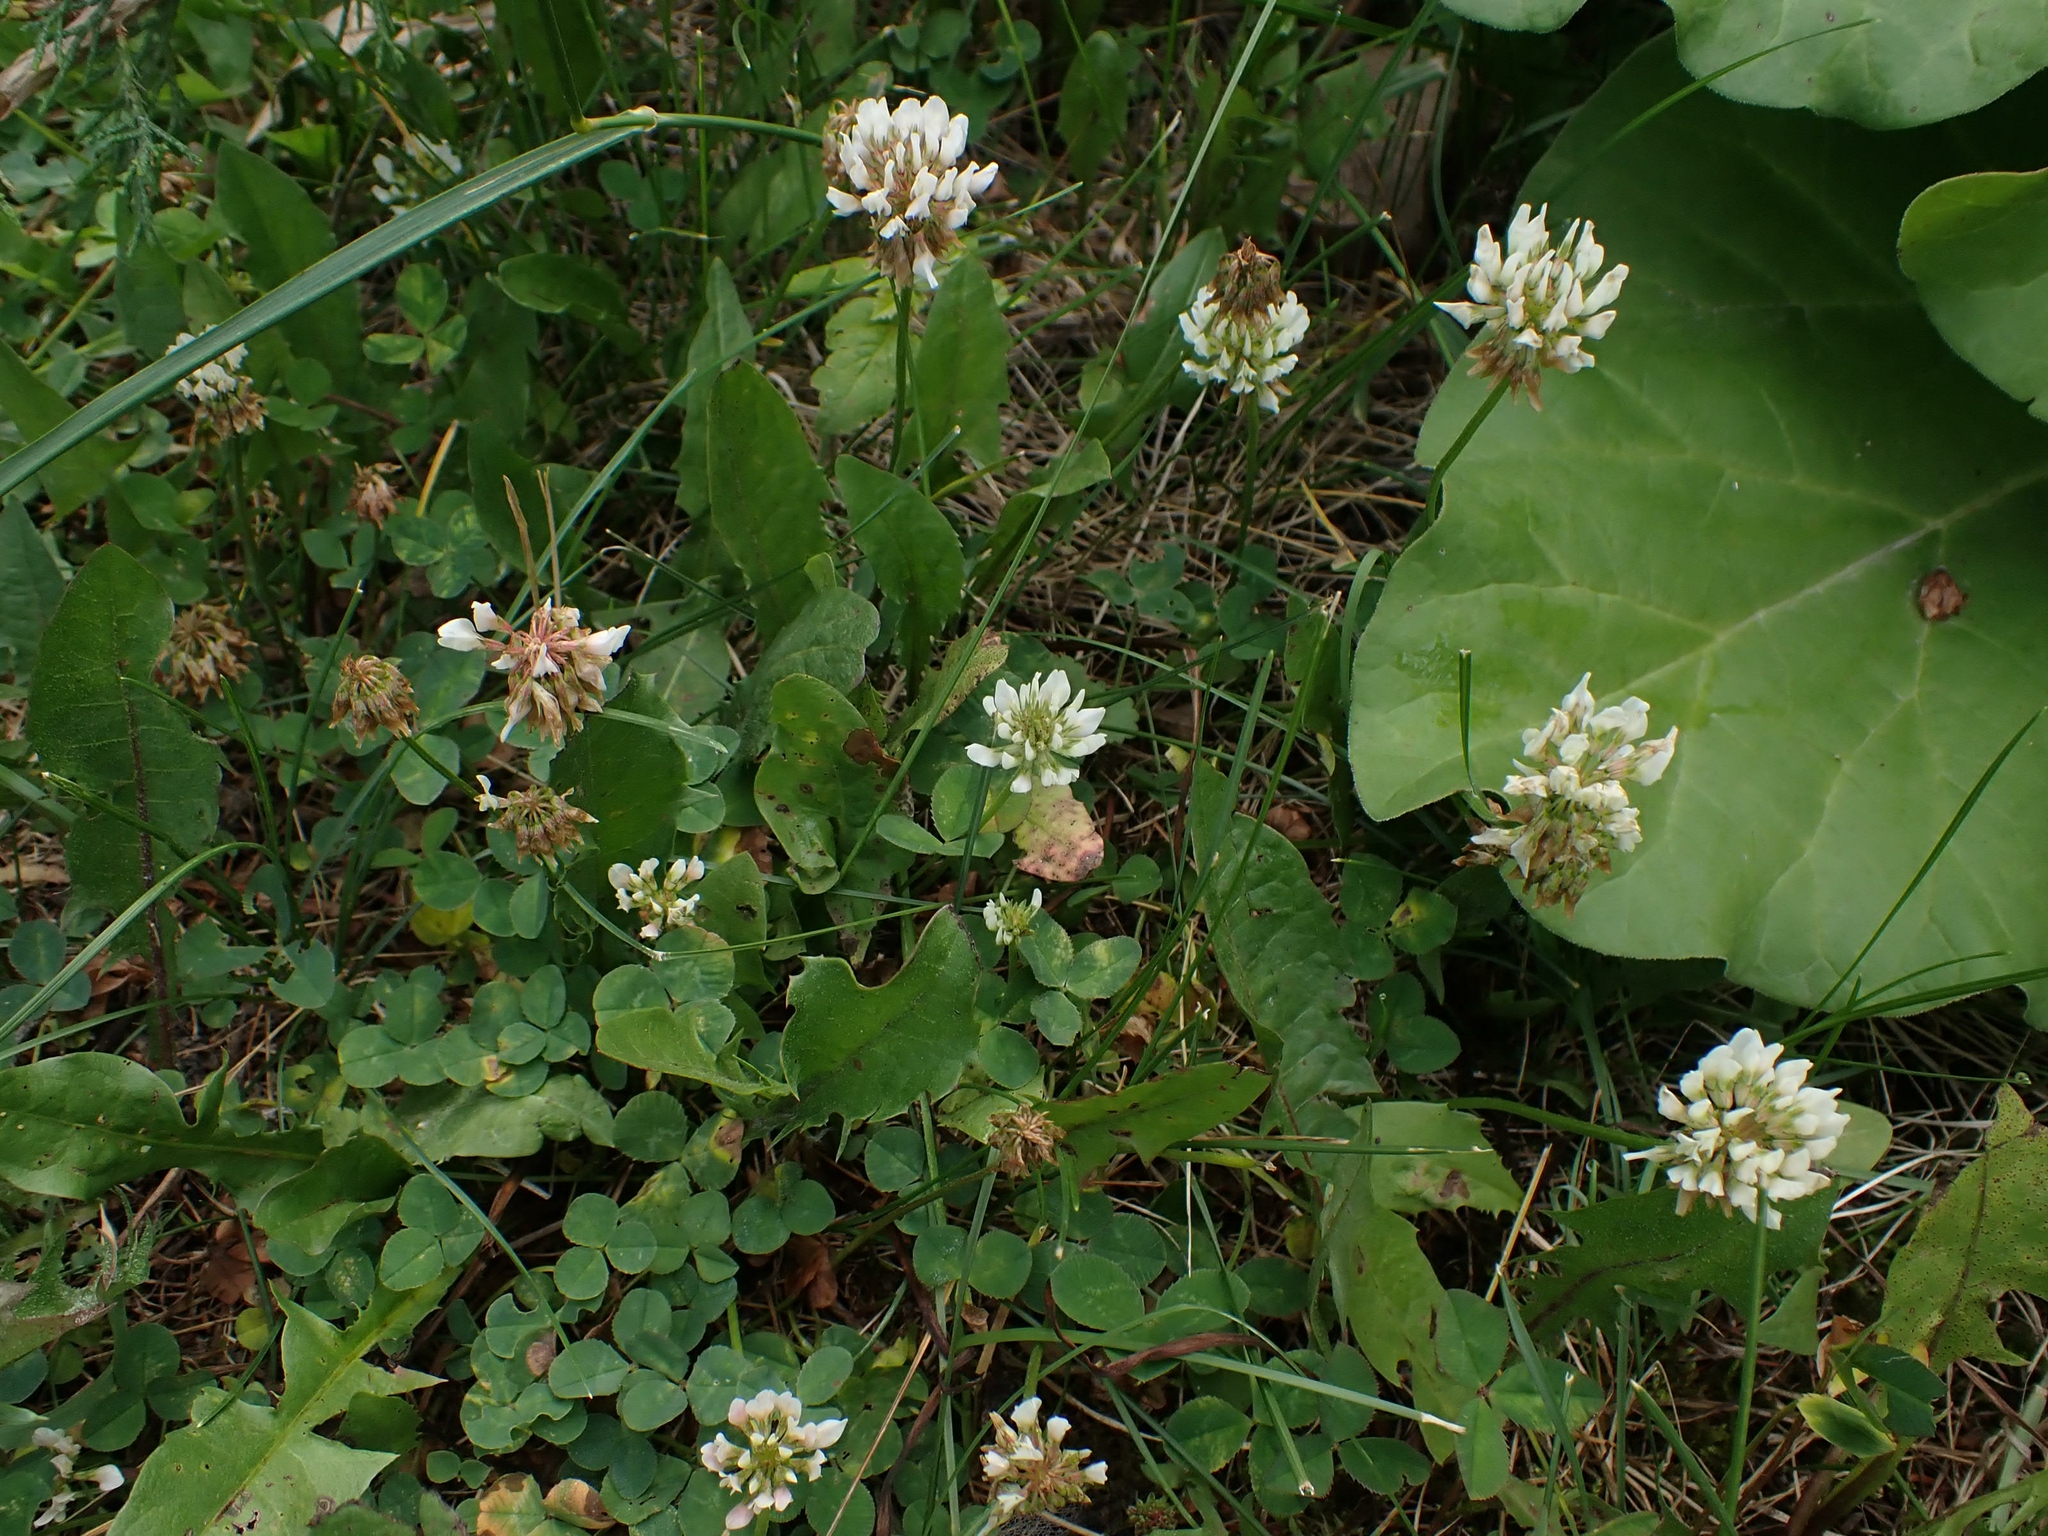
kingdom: Plantae
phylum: Tracheophyta
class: Magnoliopsida
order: Fabales
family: Fabaceae
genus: Trifolium
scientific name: Trifolium repens
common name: White clover
